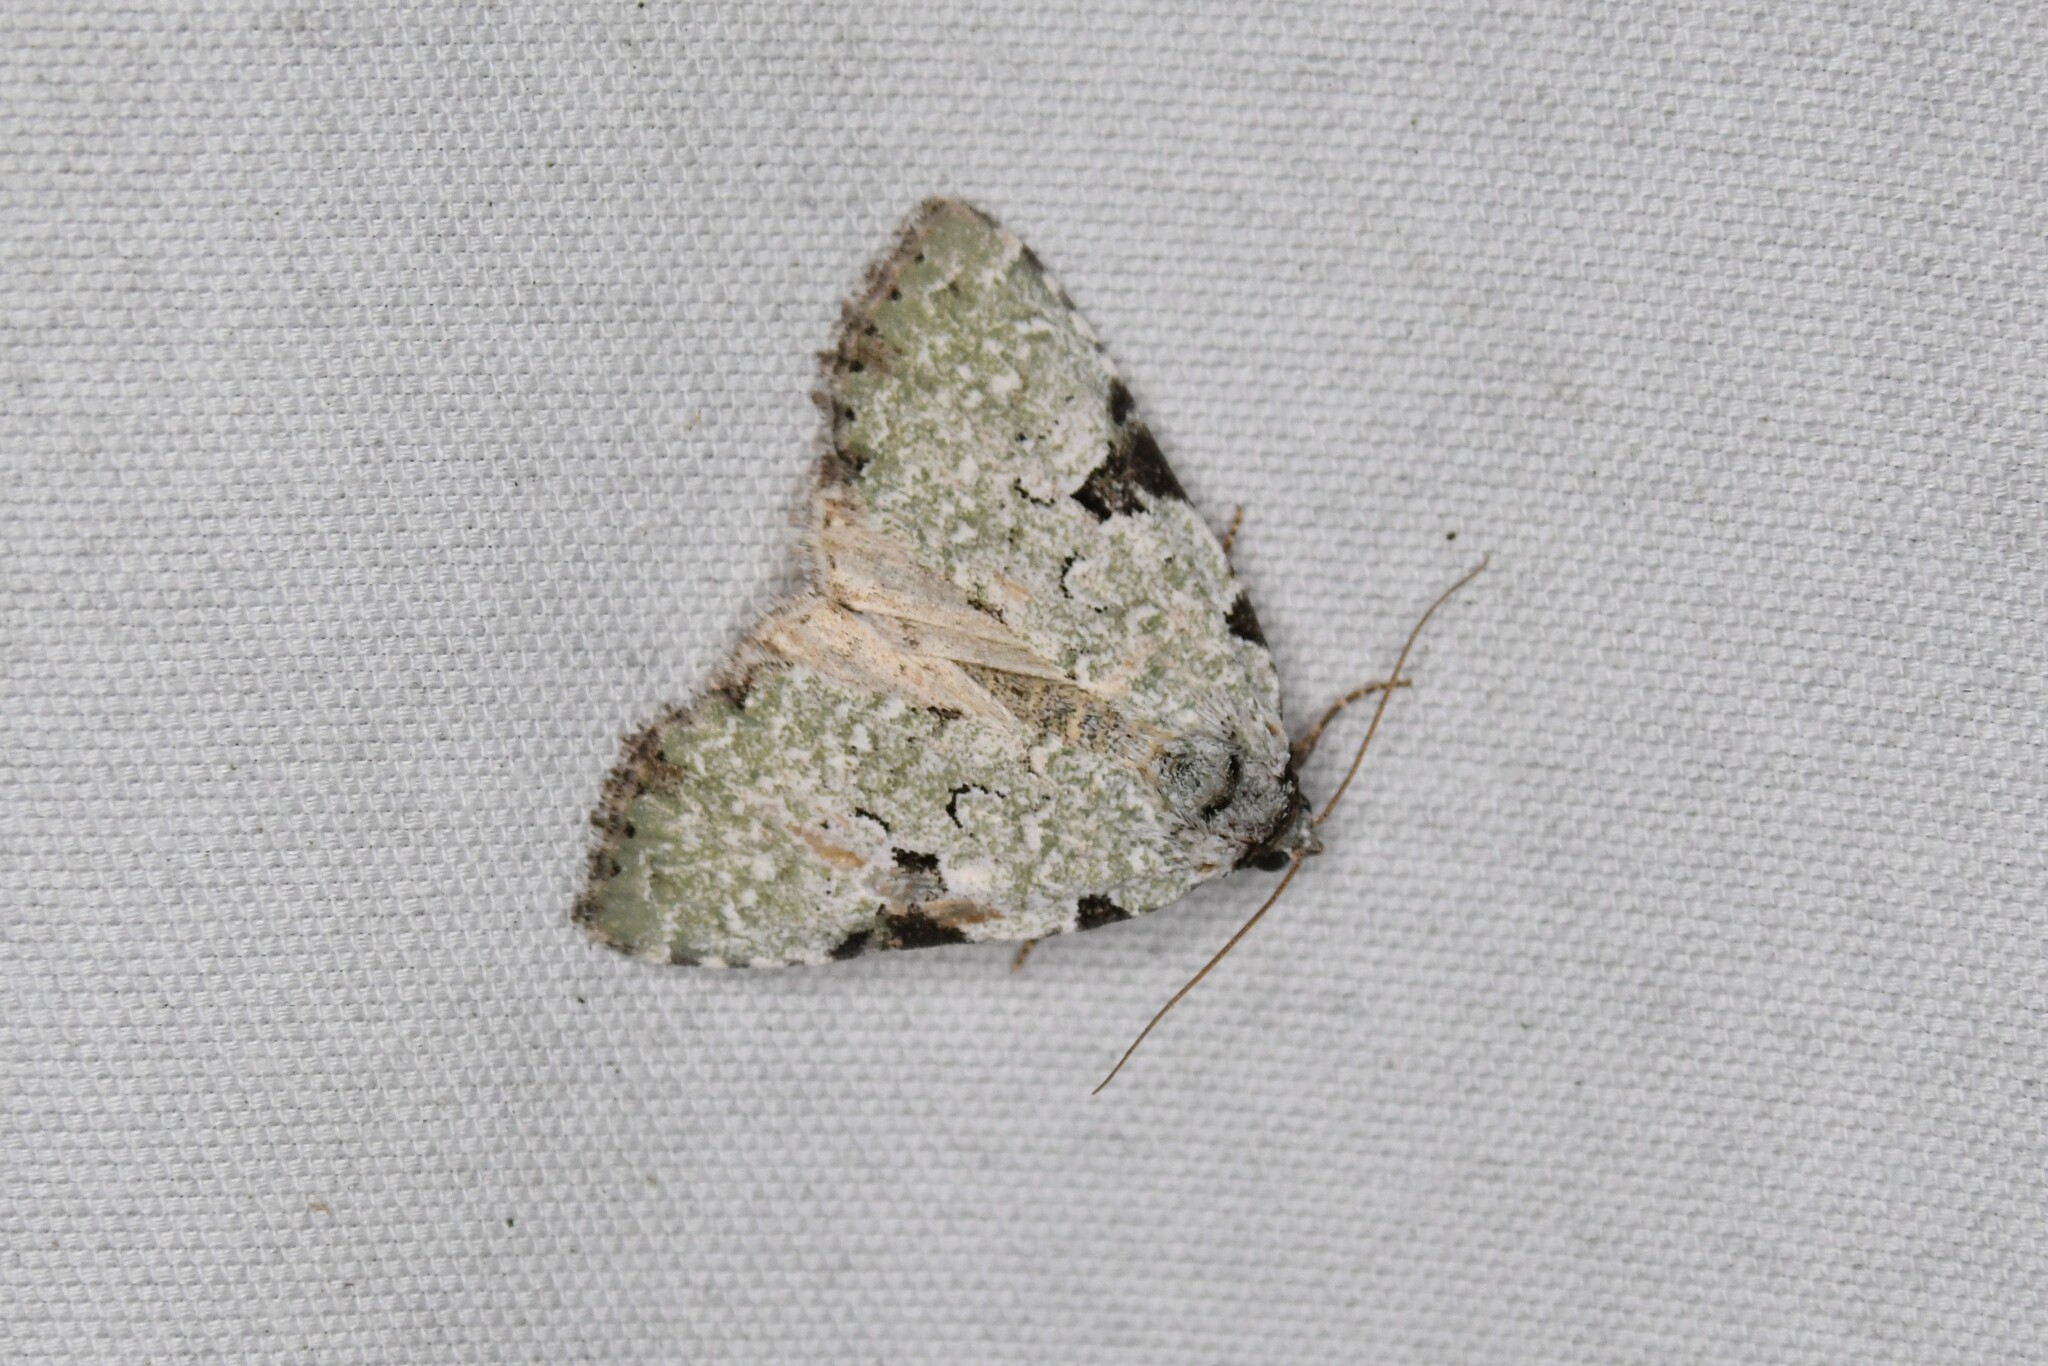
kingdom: Animalia
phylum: Arthropoda
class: Insecta
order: Lepidoptera
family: Noctuidae
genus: Leuconycta
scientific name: Leuconycta diphteroides
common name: Green leuconycta moth
